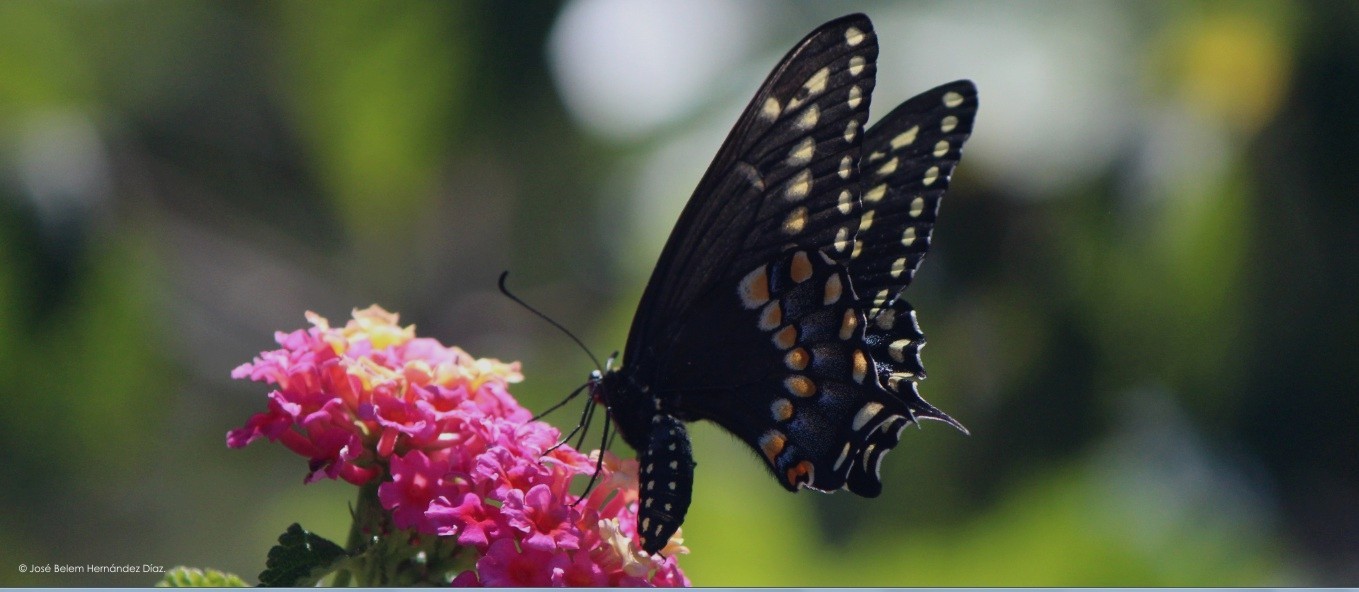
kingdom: Animalia
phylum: Arthropoda
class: Insecta
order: Lepidoptera
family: Papilionidae
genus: Papilio
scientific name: Papilio polyxenes
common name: Black swallowtail
